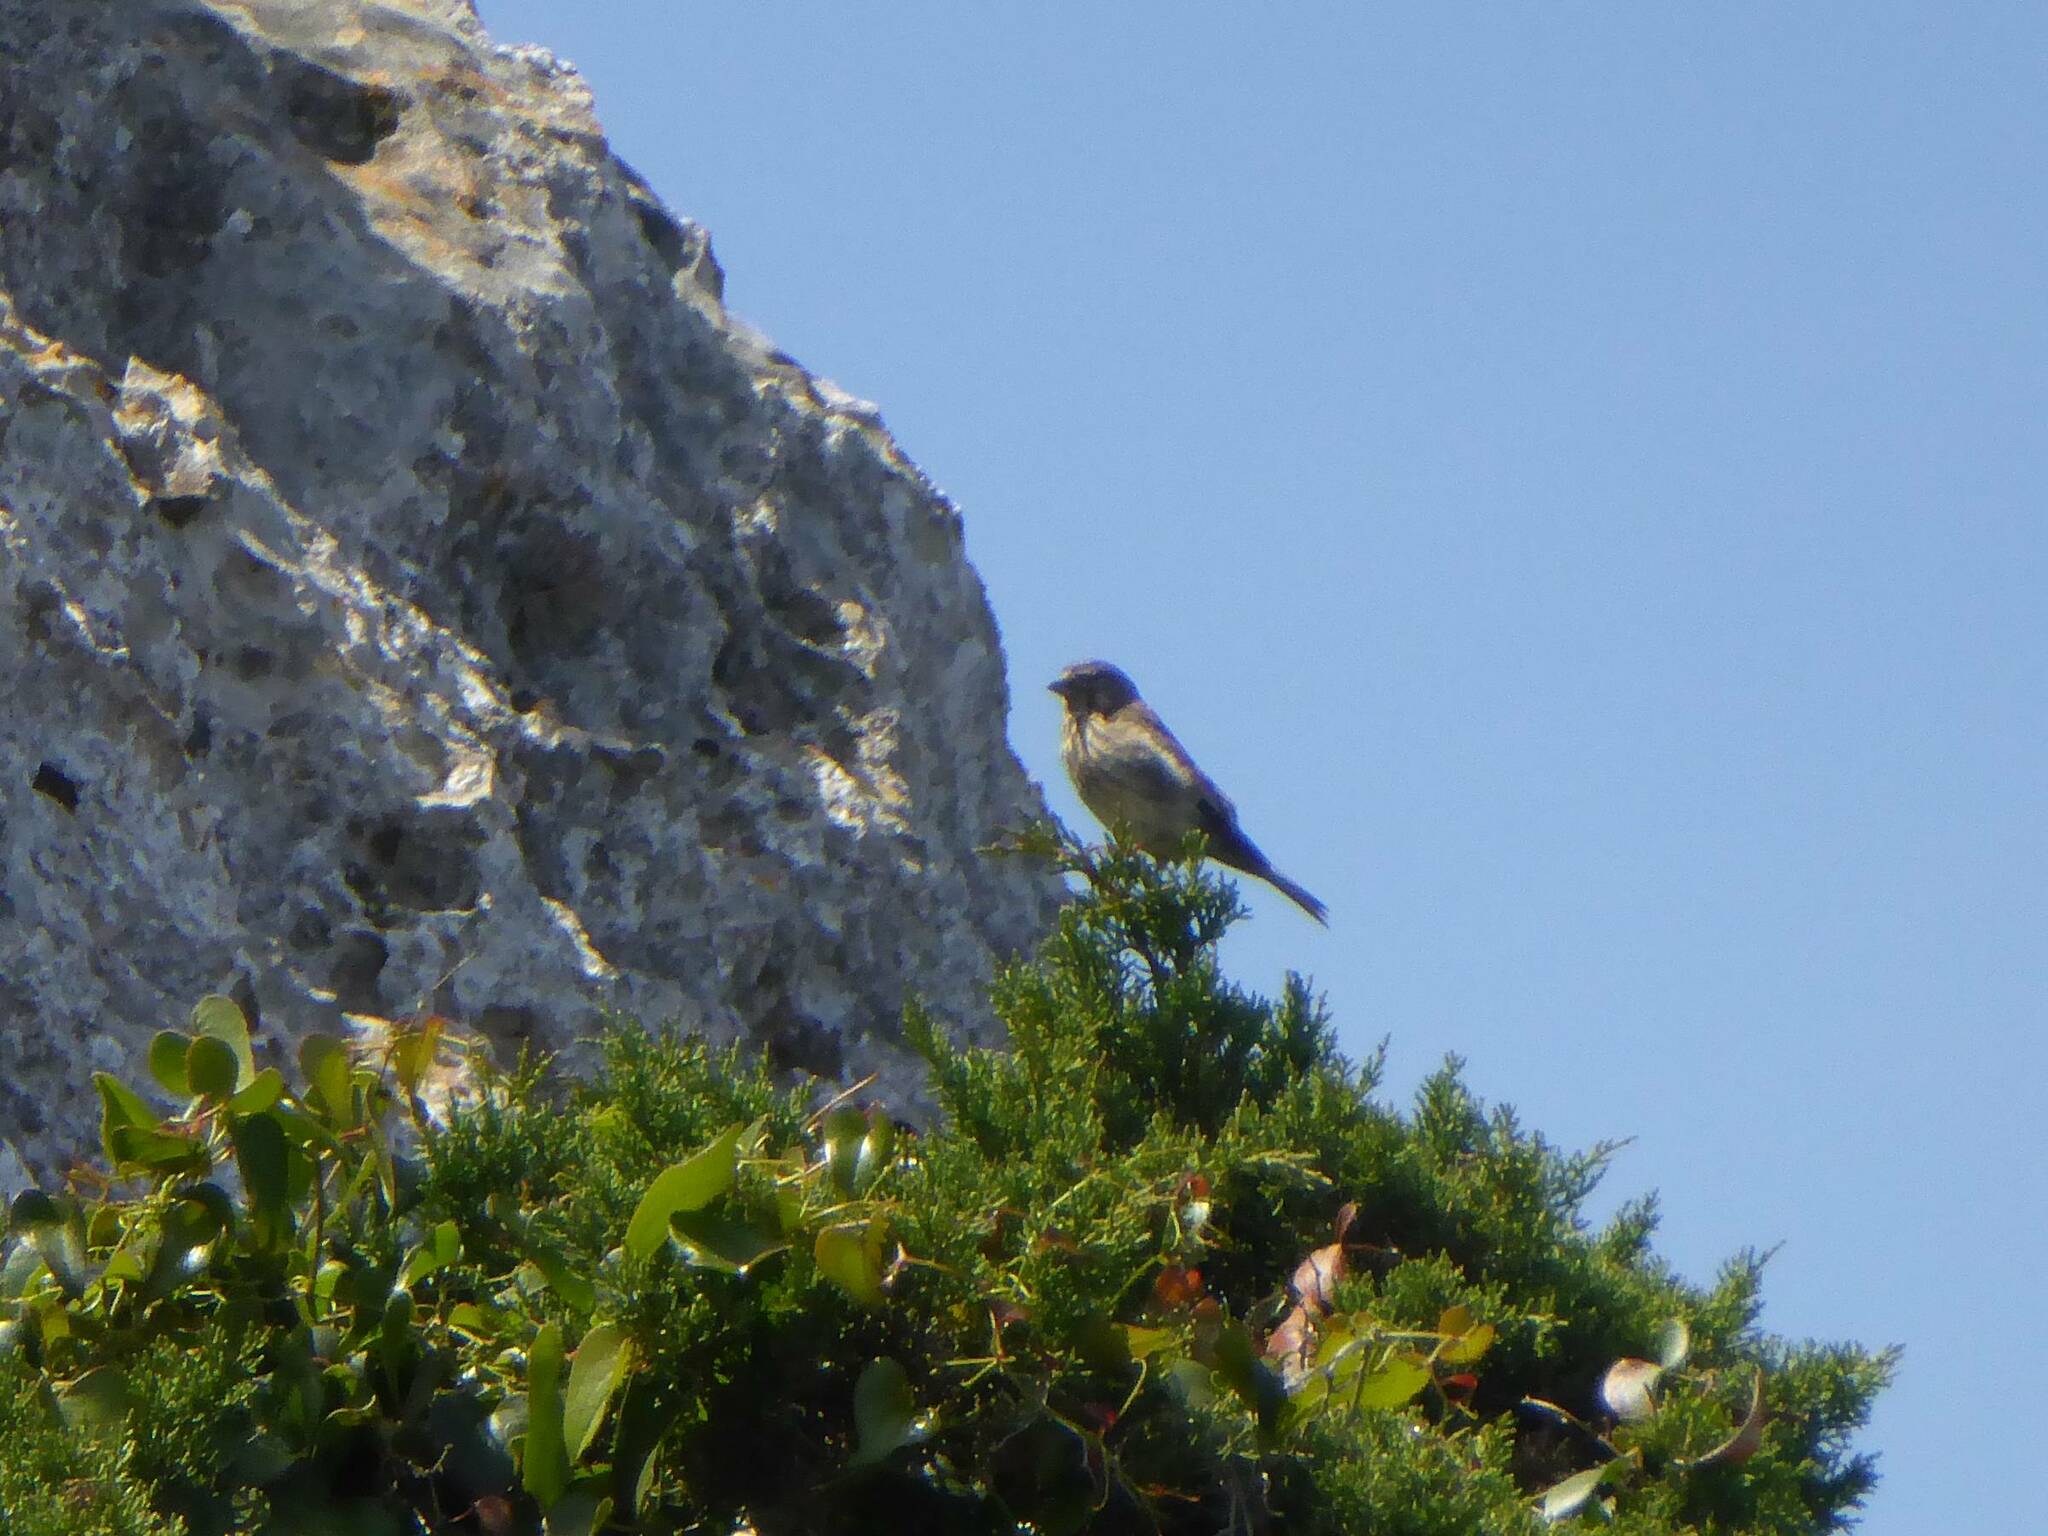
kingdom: Animalia
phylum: Chordata
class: Aves
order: Passeriformes
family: Fringillidae
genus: Linaria
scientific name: Linaria cannabina
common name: Common linnet
